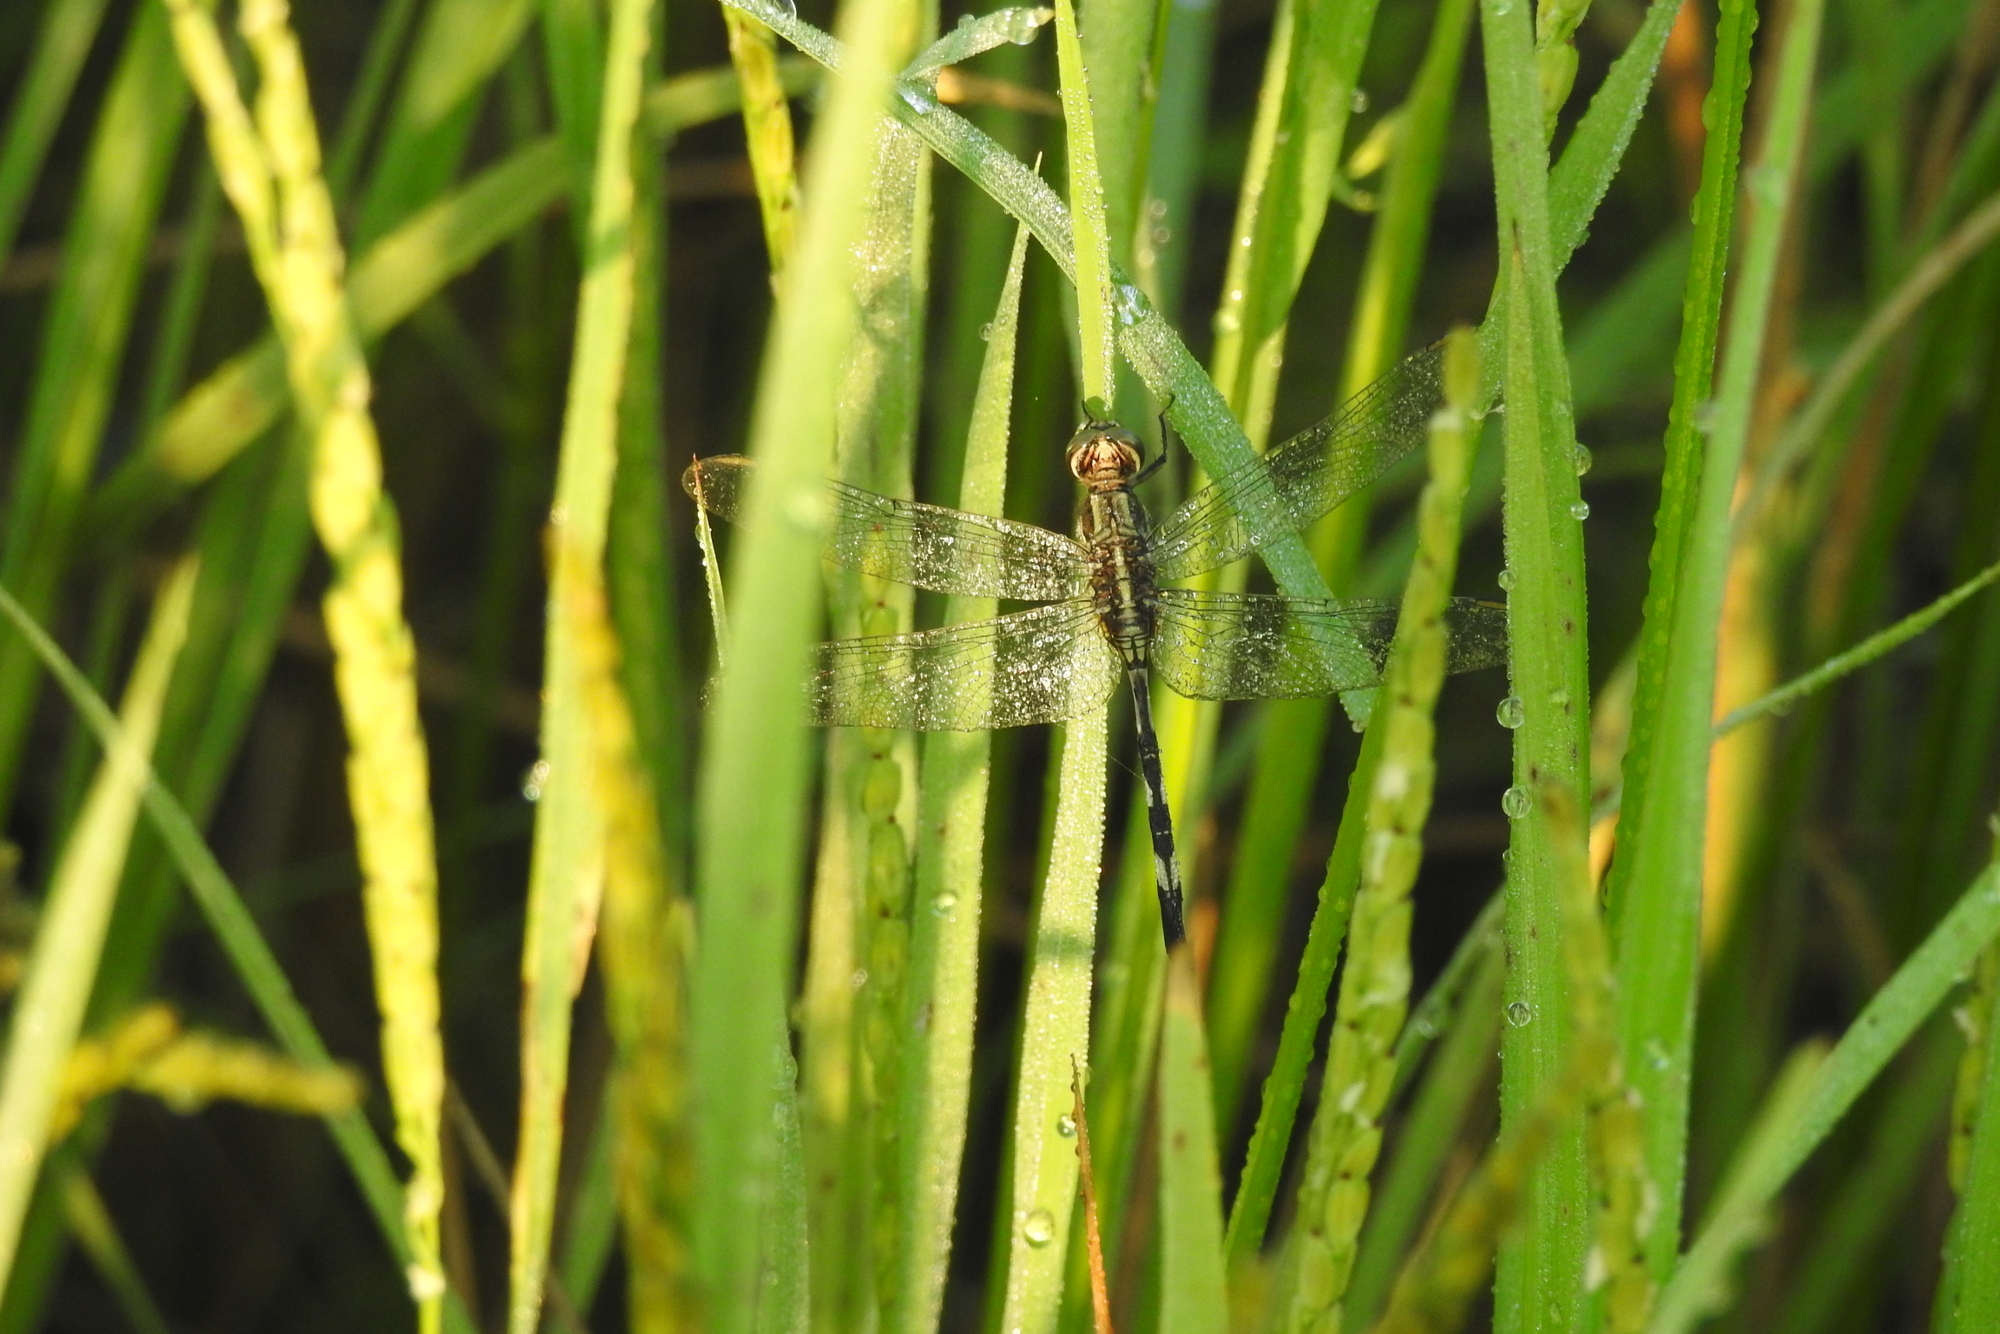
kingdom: Animalia
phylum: Arthropoda
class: Insecta
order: Odonata
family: Libellulidae
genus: Orthetrum
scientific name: Orthetrum sabina
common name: Slender skimmer
